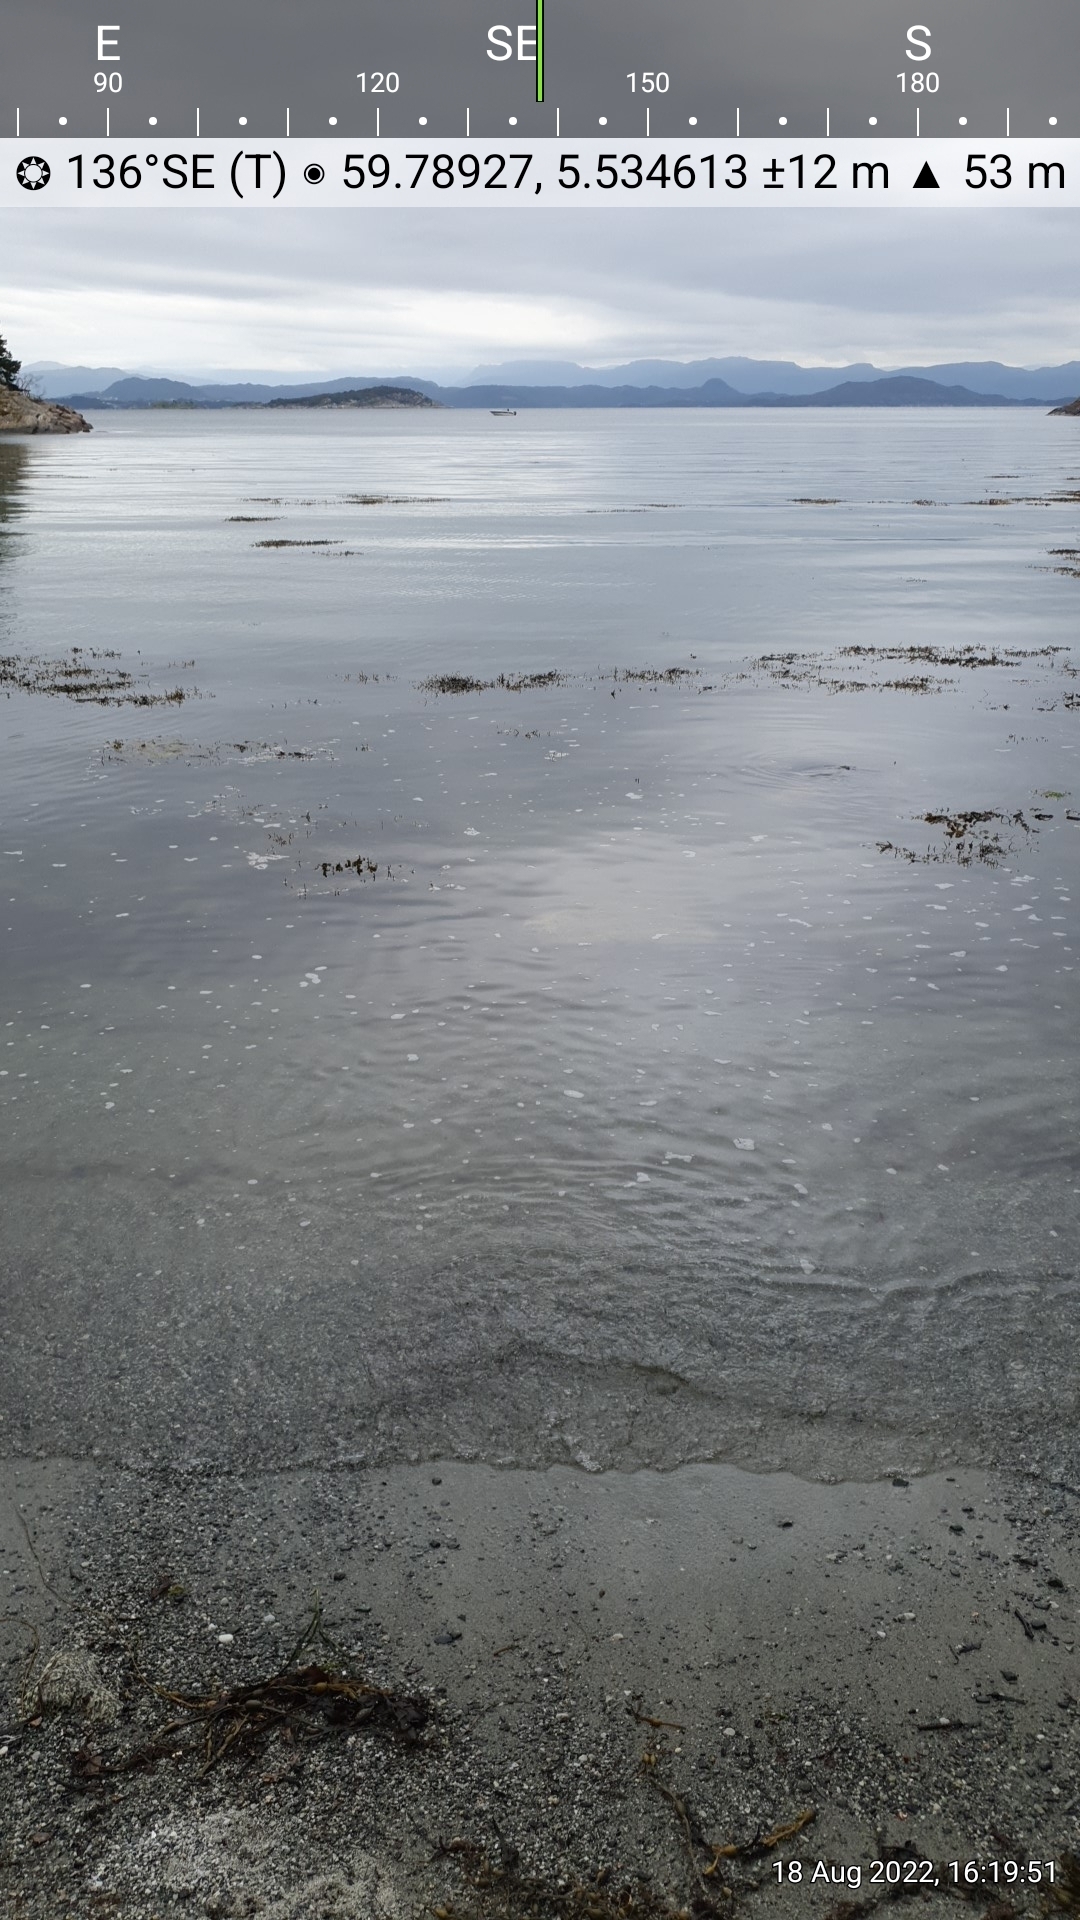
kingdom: Plantae
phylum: Tracheophyta
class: Magnoliopsida
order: Asterales
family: Asteraceae
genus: Sonchus
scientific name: Sonchus arvensis
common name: Perennial sow-thistle
